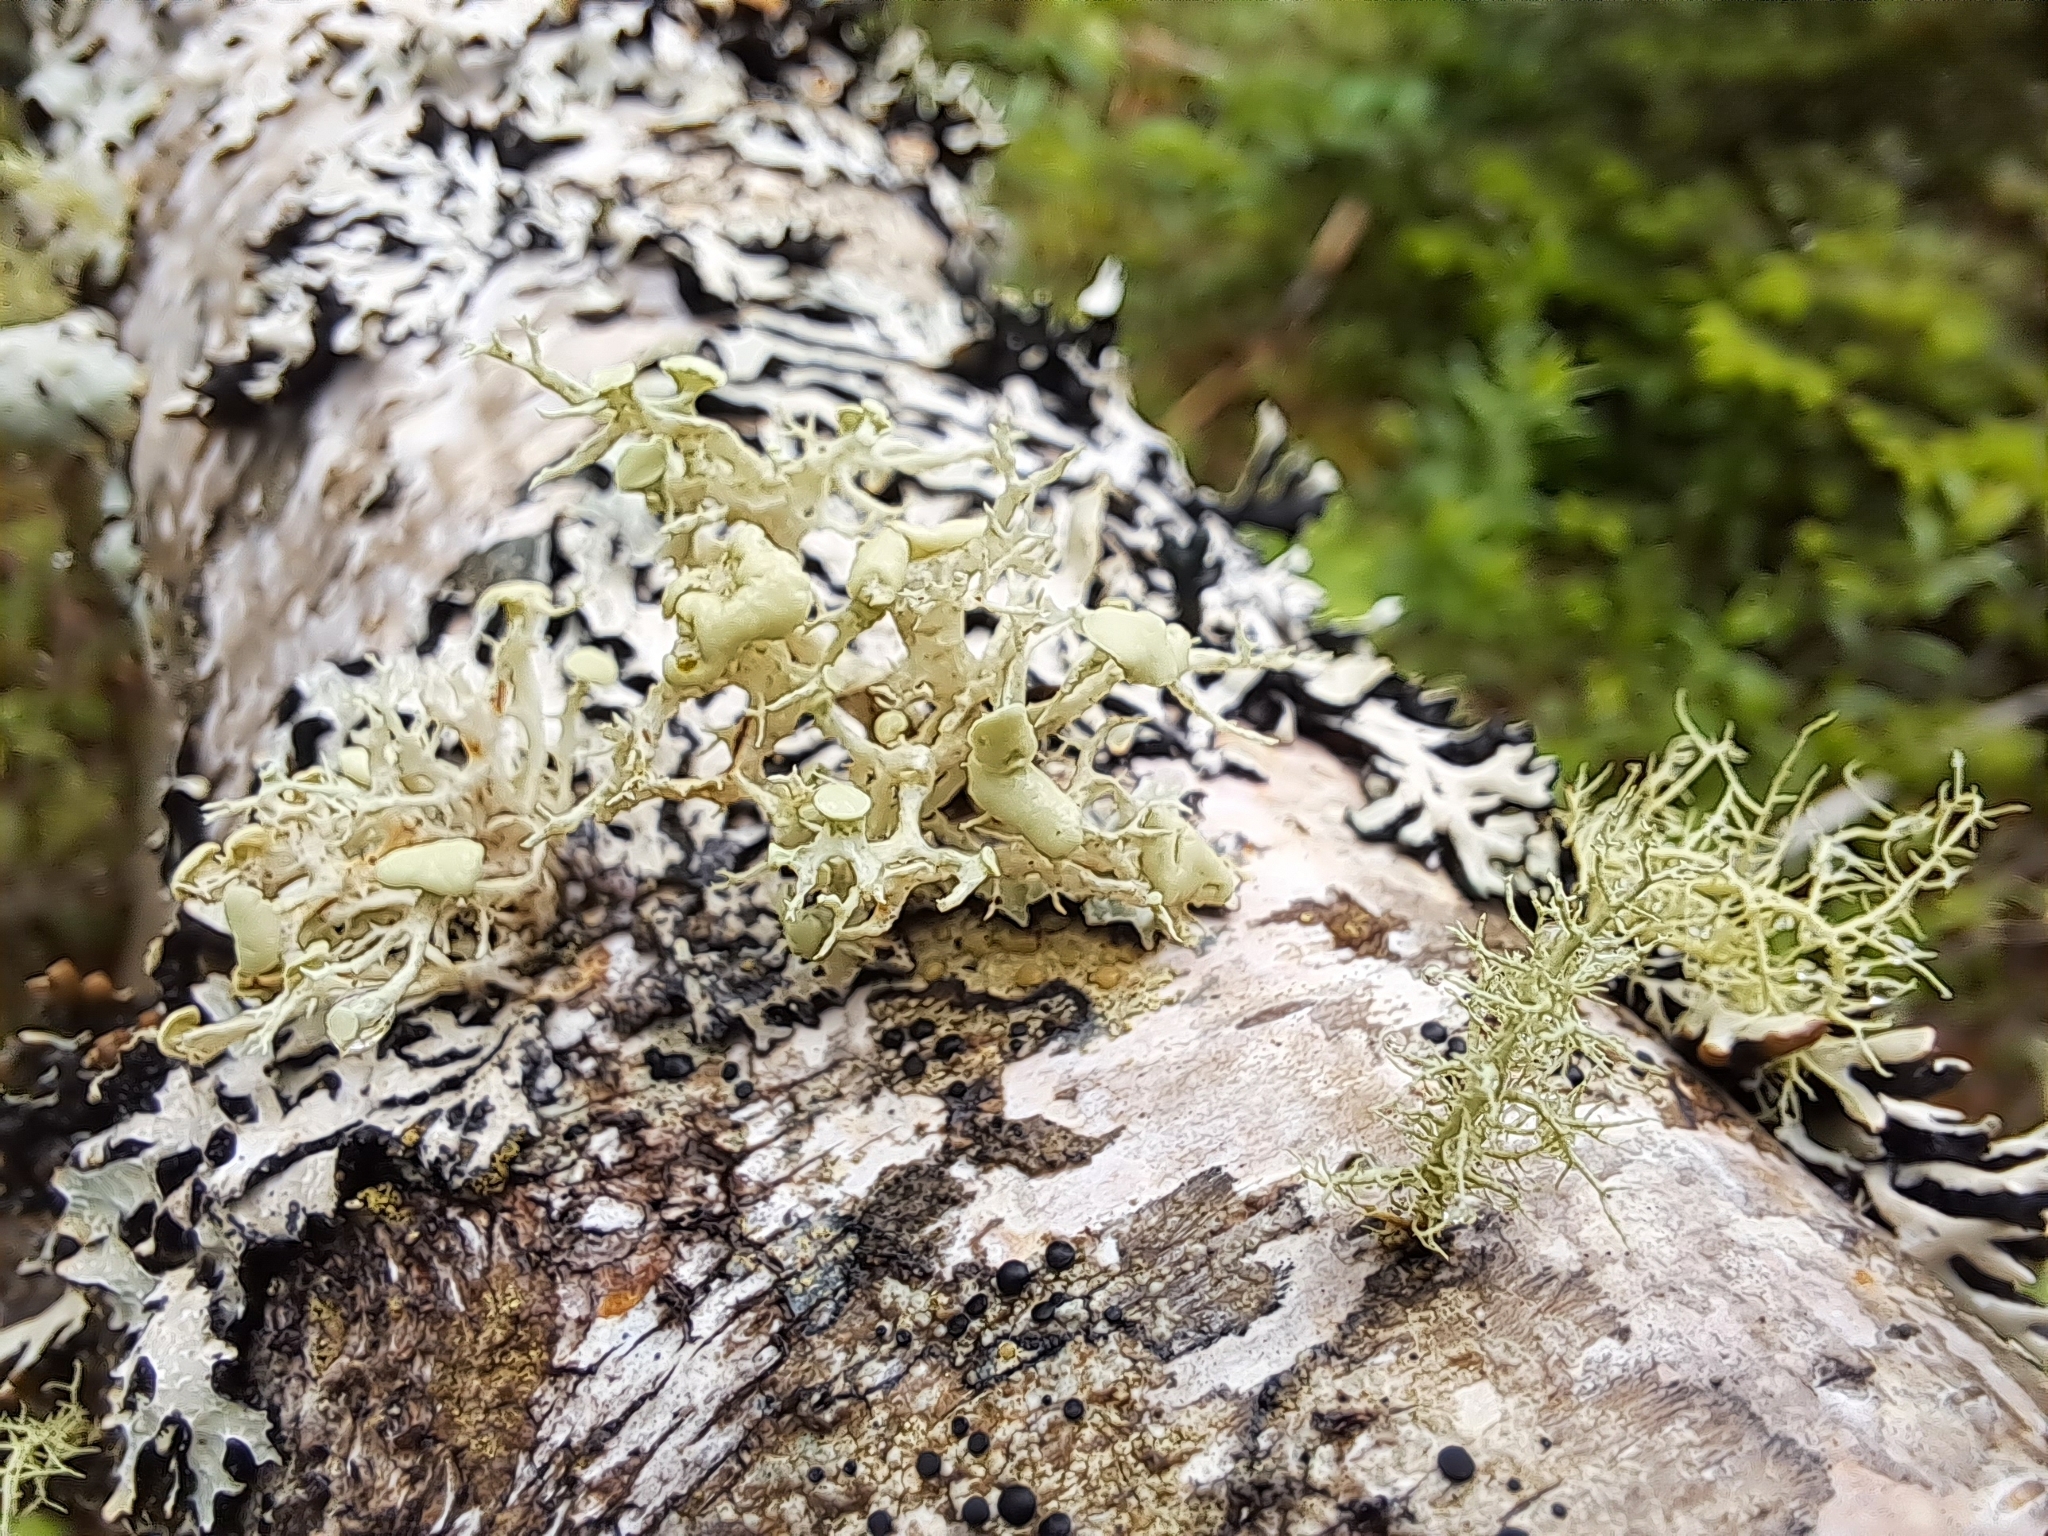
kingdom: Fungi
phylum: Ascomycota
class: Lecanoromycetes
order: Lecanorales
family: Ramalinaceae
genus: Ramalina
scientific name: Ramalina americana
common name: Sinewed bush lichen
